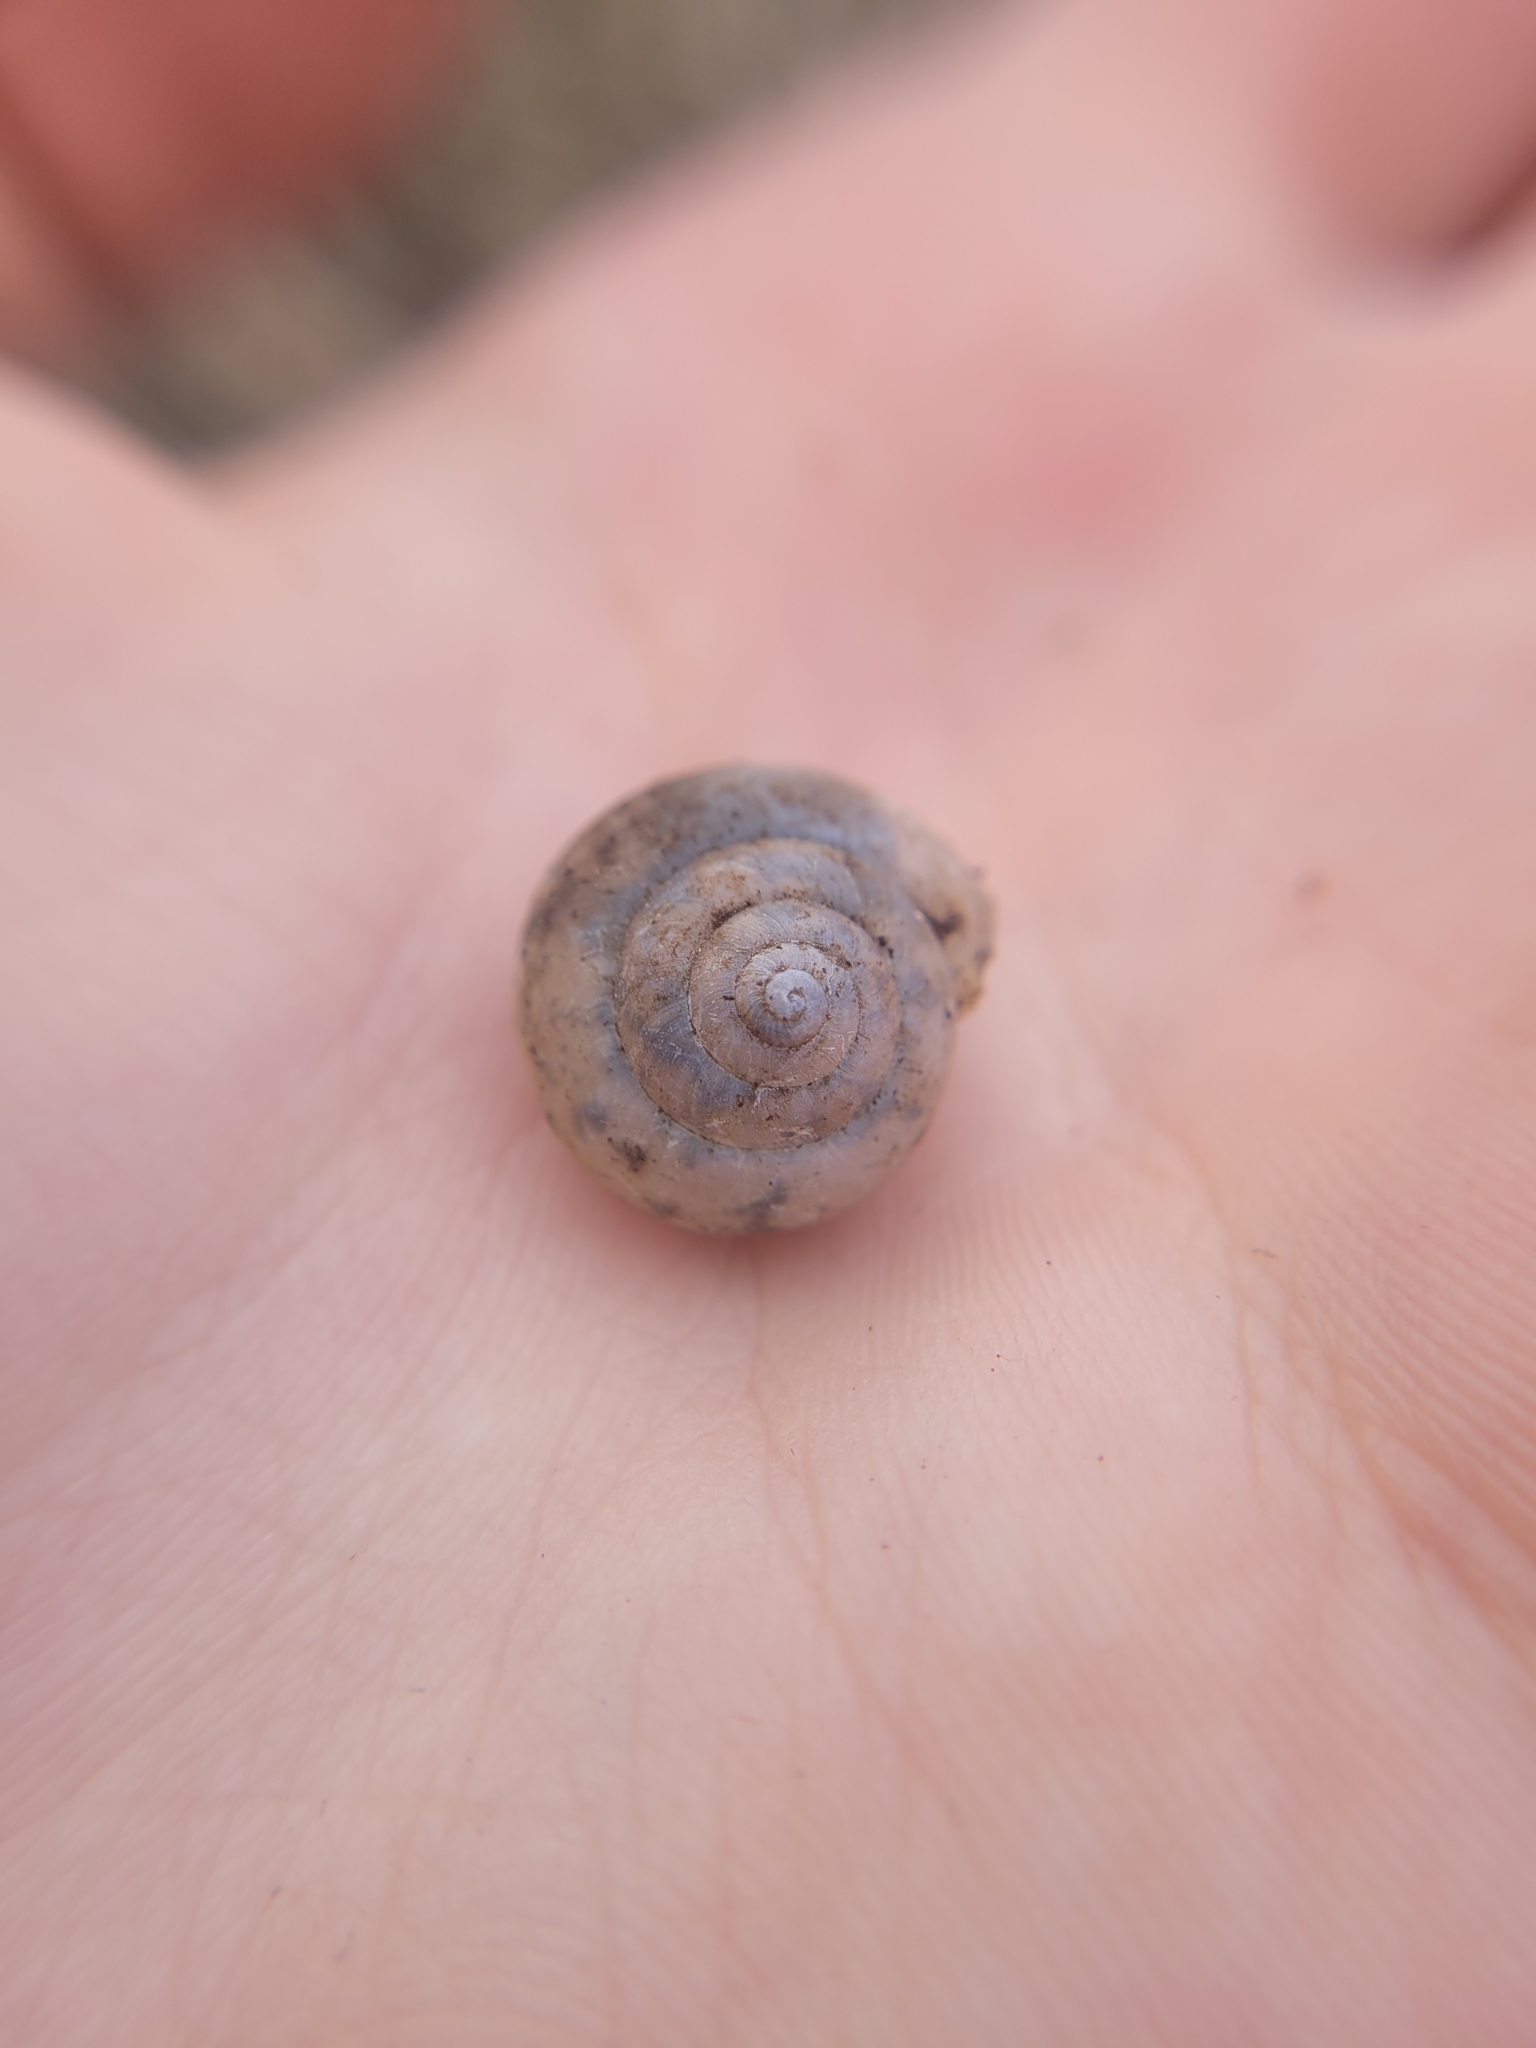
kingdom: Animalia
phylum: Mollusca
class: Gastropoda
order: Stylommatophora
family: Camaenidae
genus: Fruticicola
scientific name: Fruticicola fruticum
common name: Bush snail
